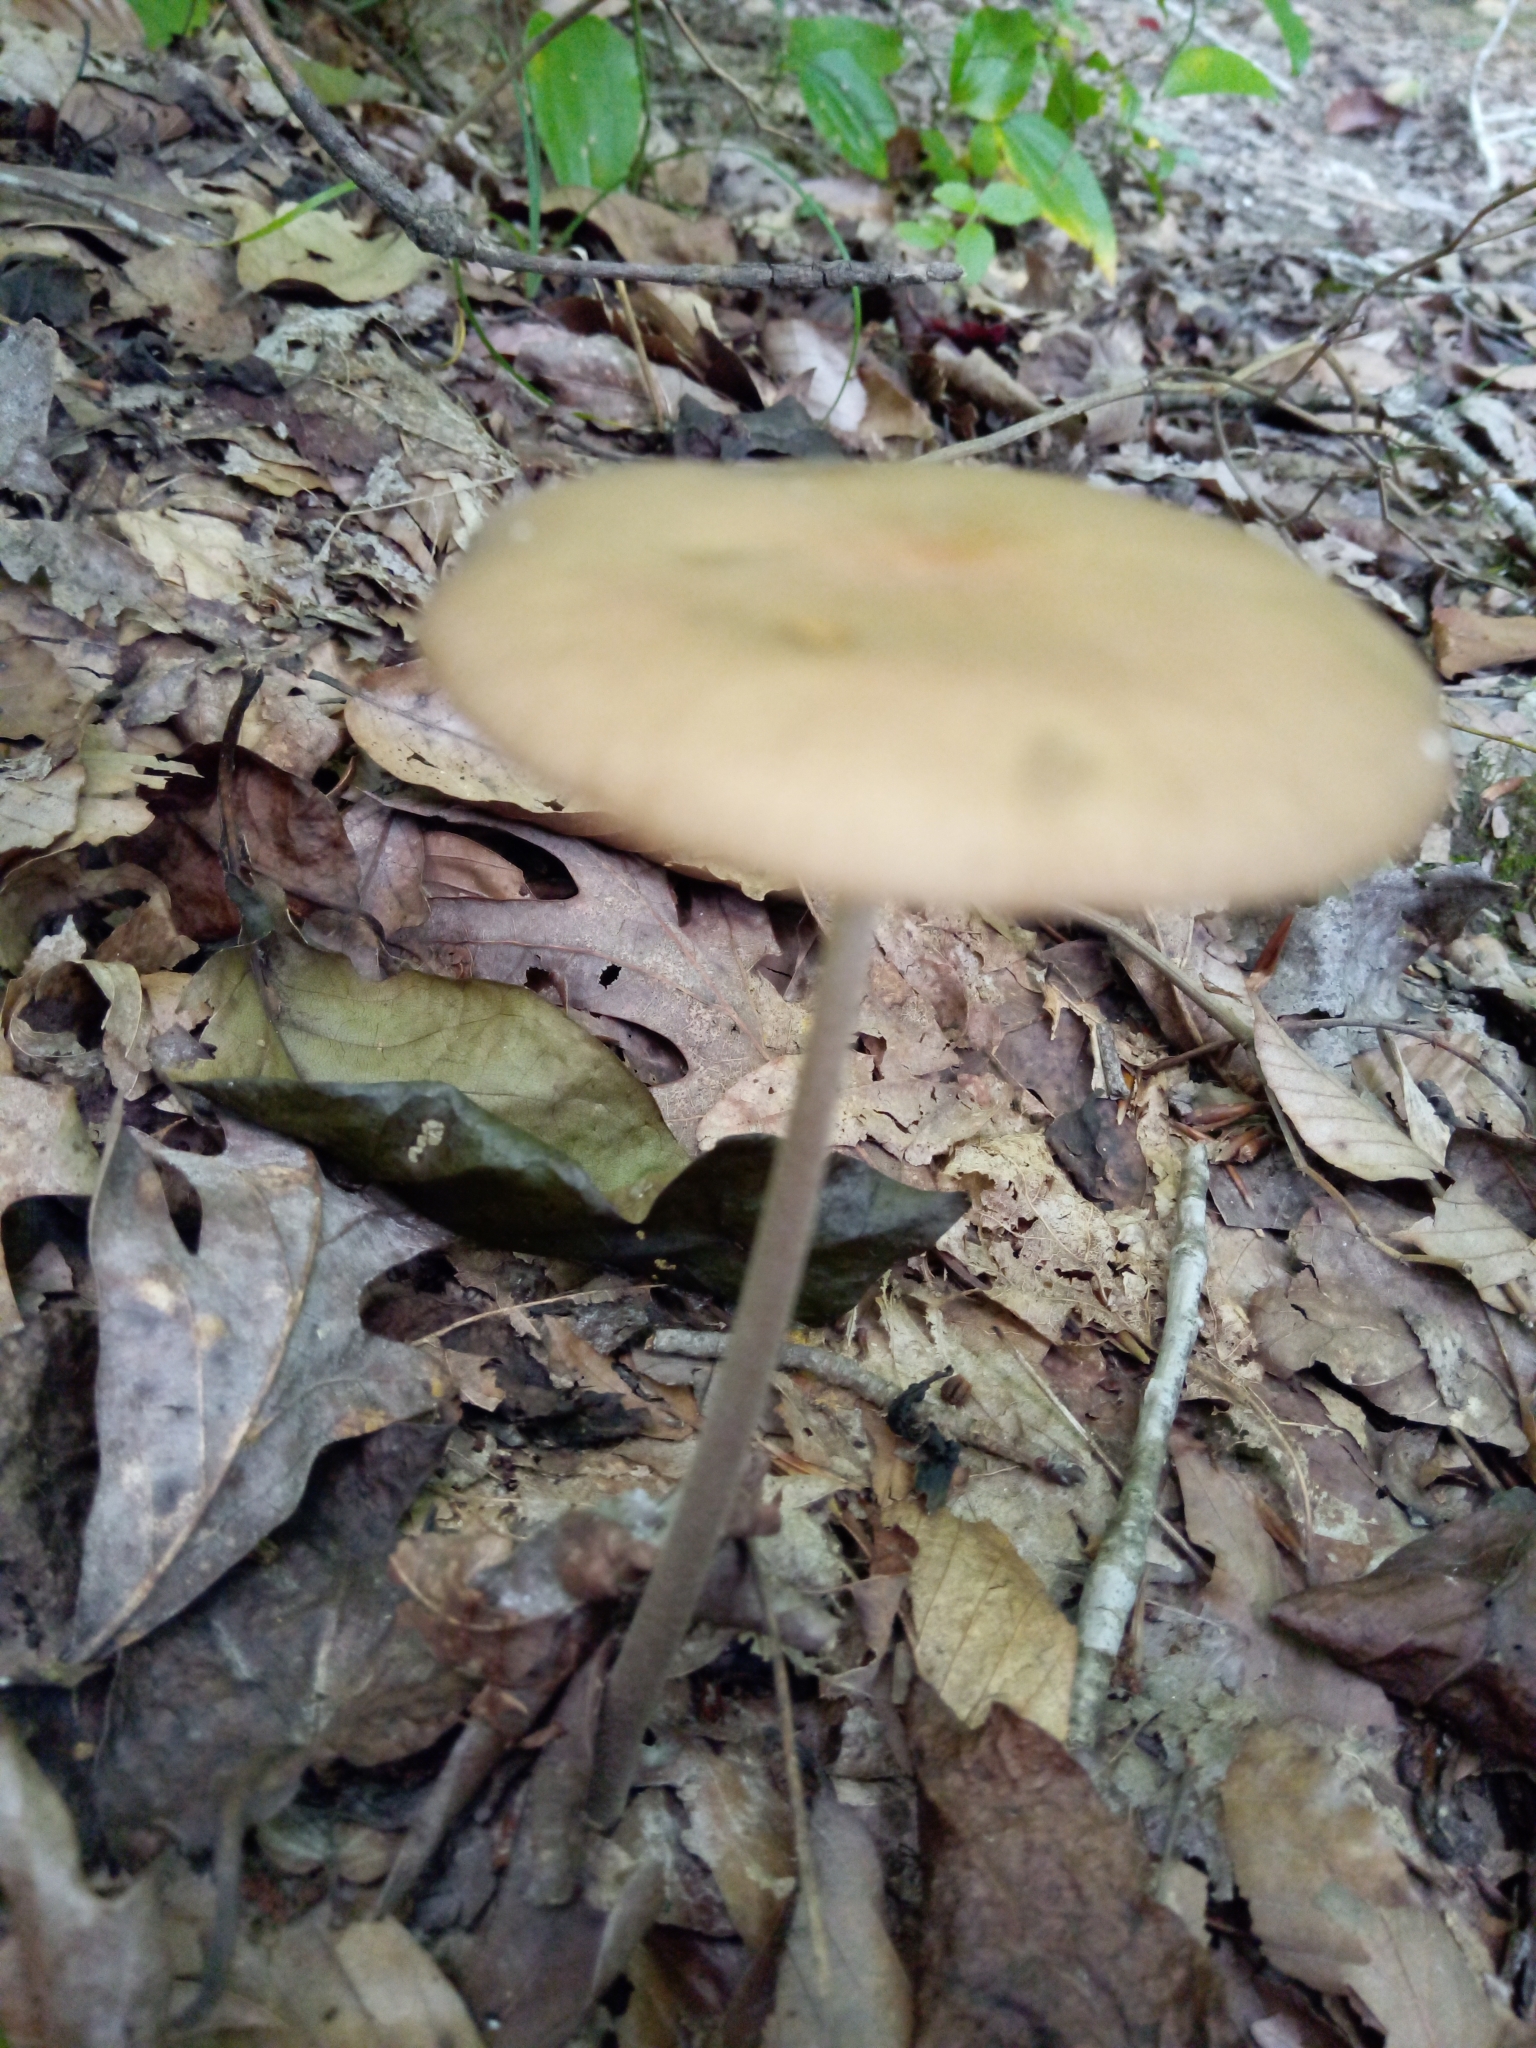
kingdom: Fungi
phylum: Basidiomycota
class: Agaricomycetes
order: Agaricales
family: Physalacriaceae
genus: Hymenopellis
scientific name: Hymenopellis furfuracea
